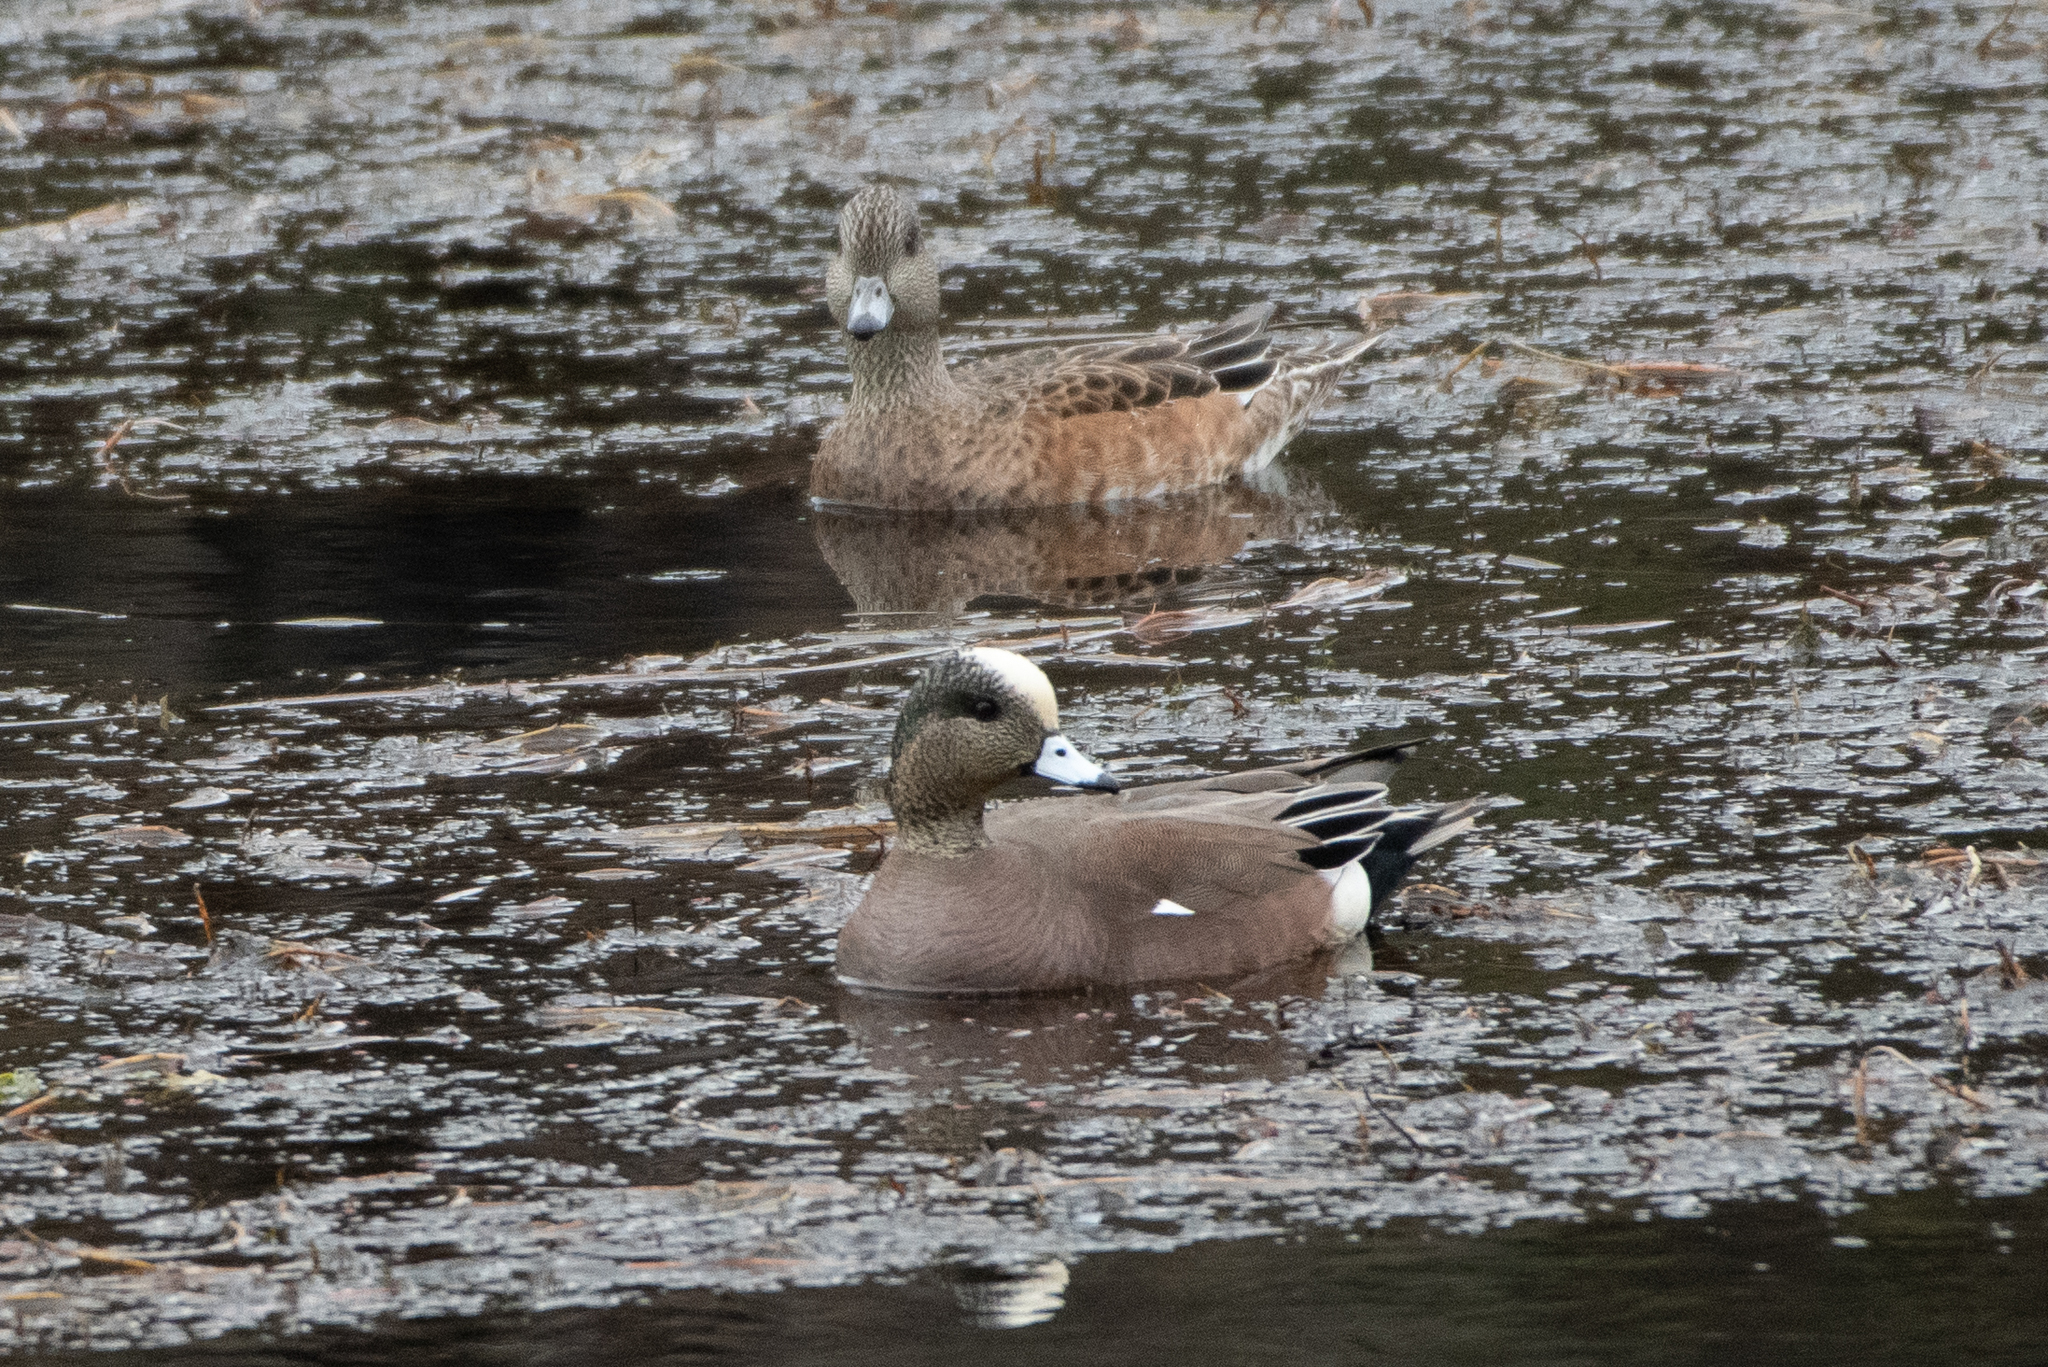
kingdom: Animalia
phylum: Chordata
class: Aves
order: Anseriformes
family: Anatidae
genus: Mareca
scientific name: Mareca americana
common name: American wigeon
